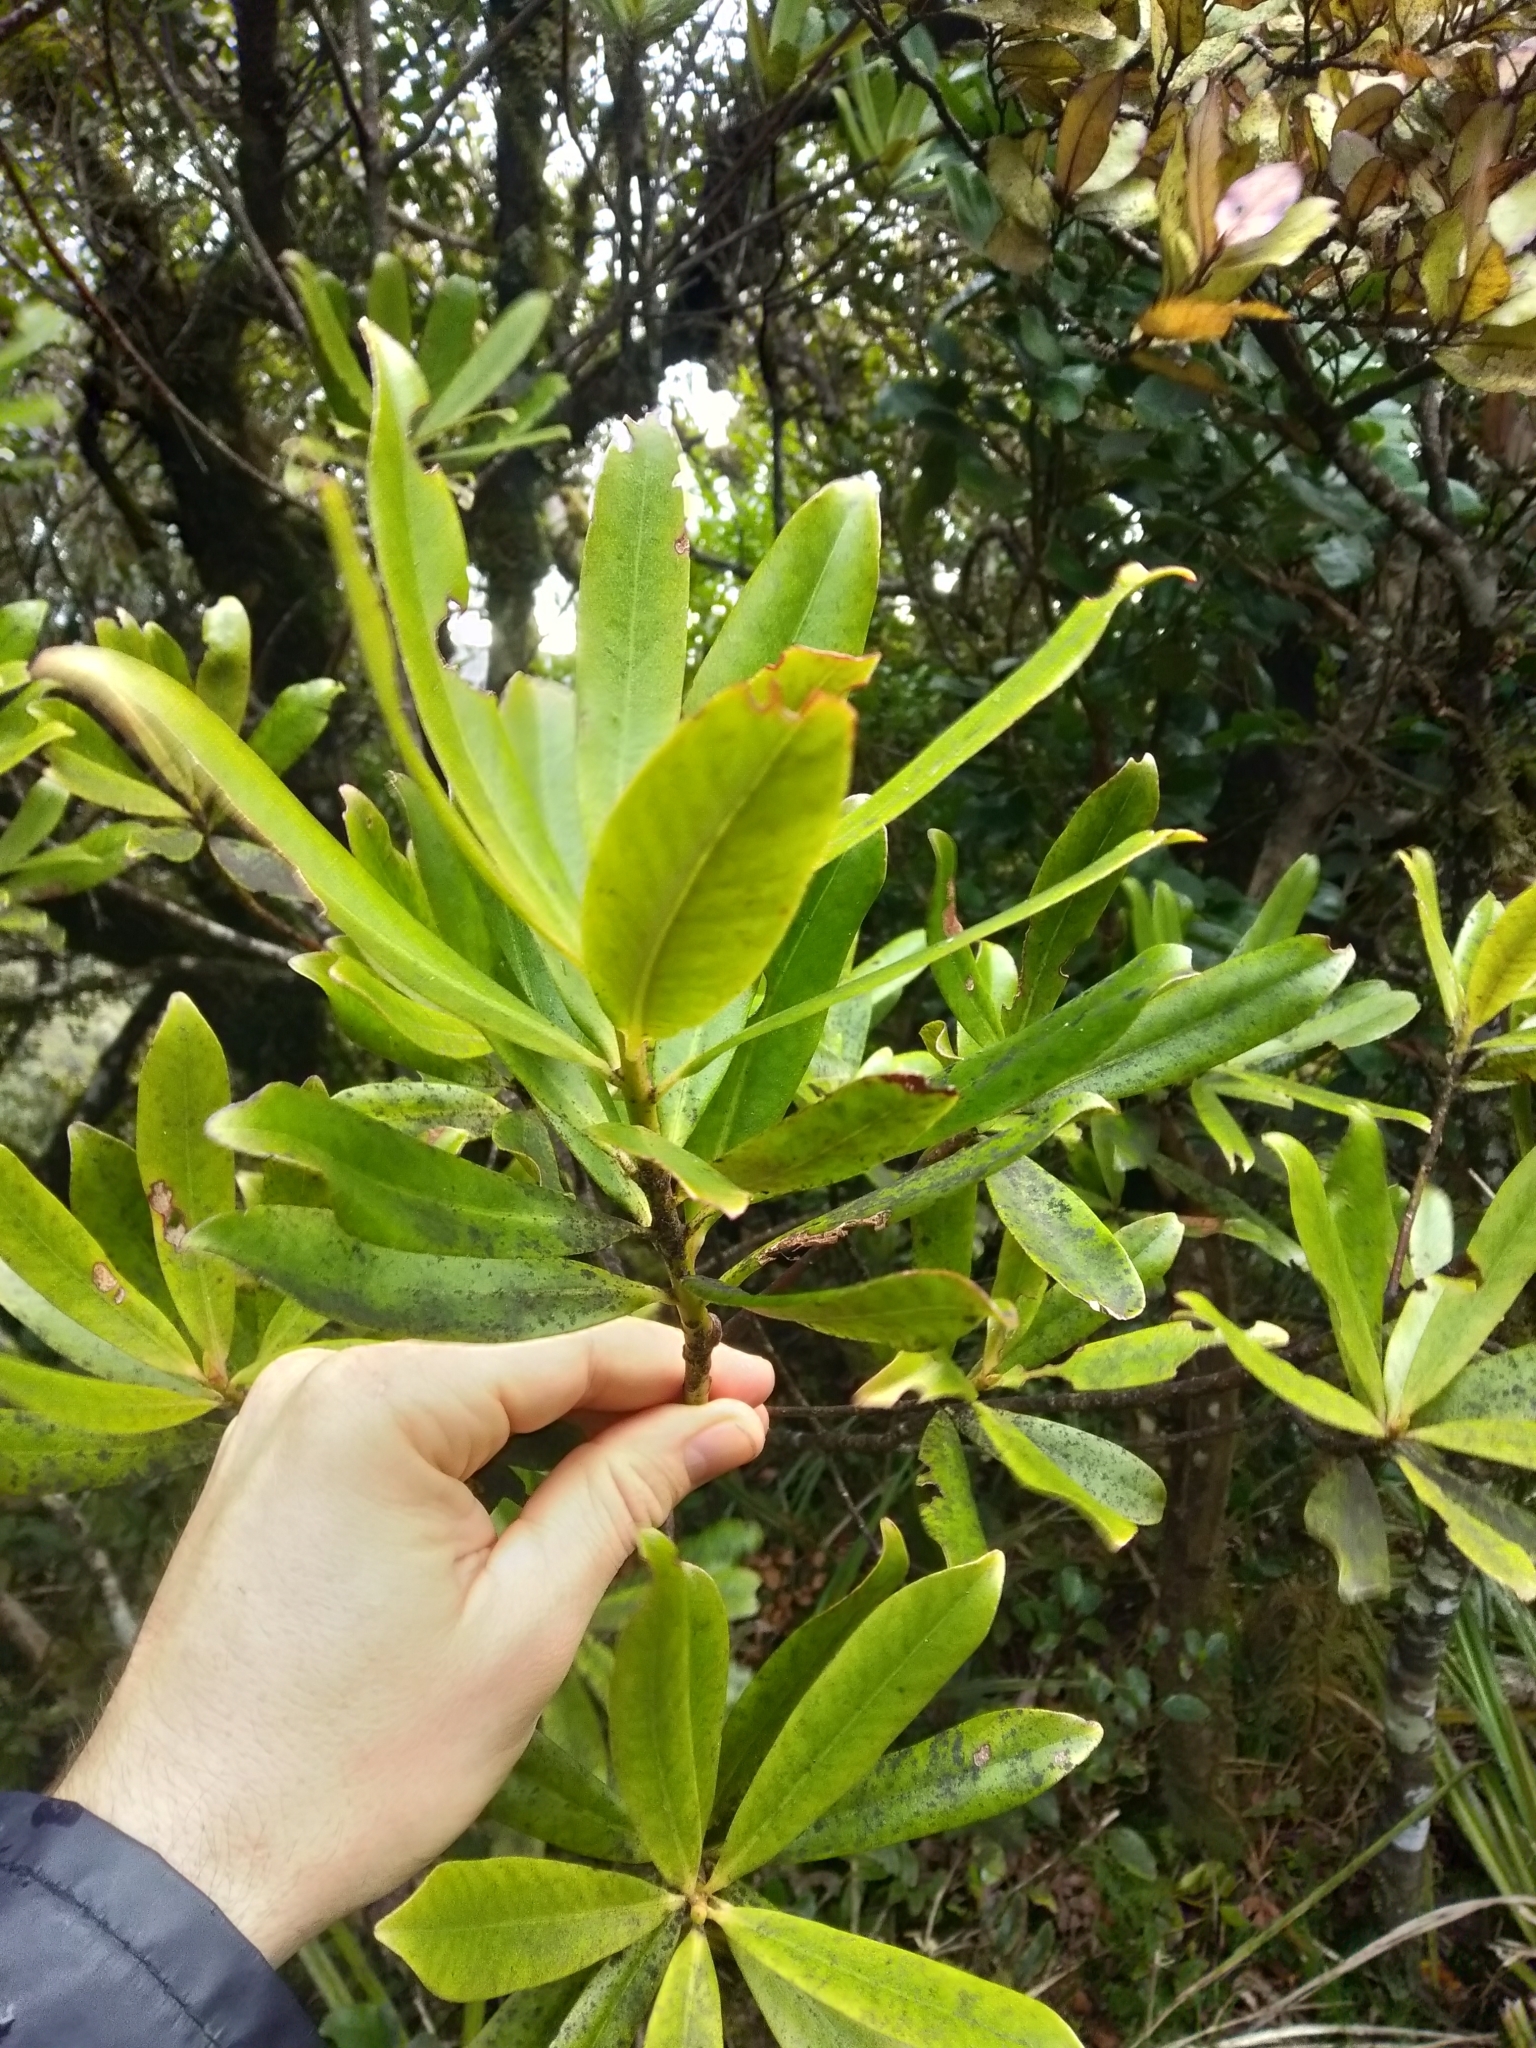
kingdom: Plantae
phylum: Tracheophyta
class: Magnoliopsida
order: Ericales
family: Primulaceae
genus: Myrsine
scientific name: Myrsine salicina
